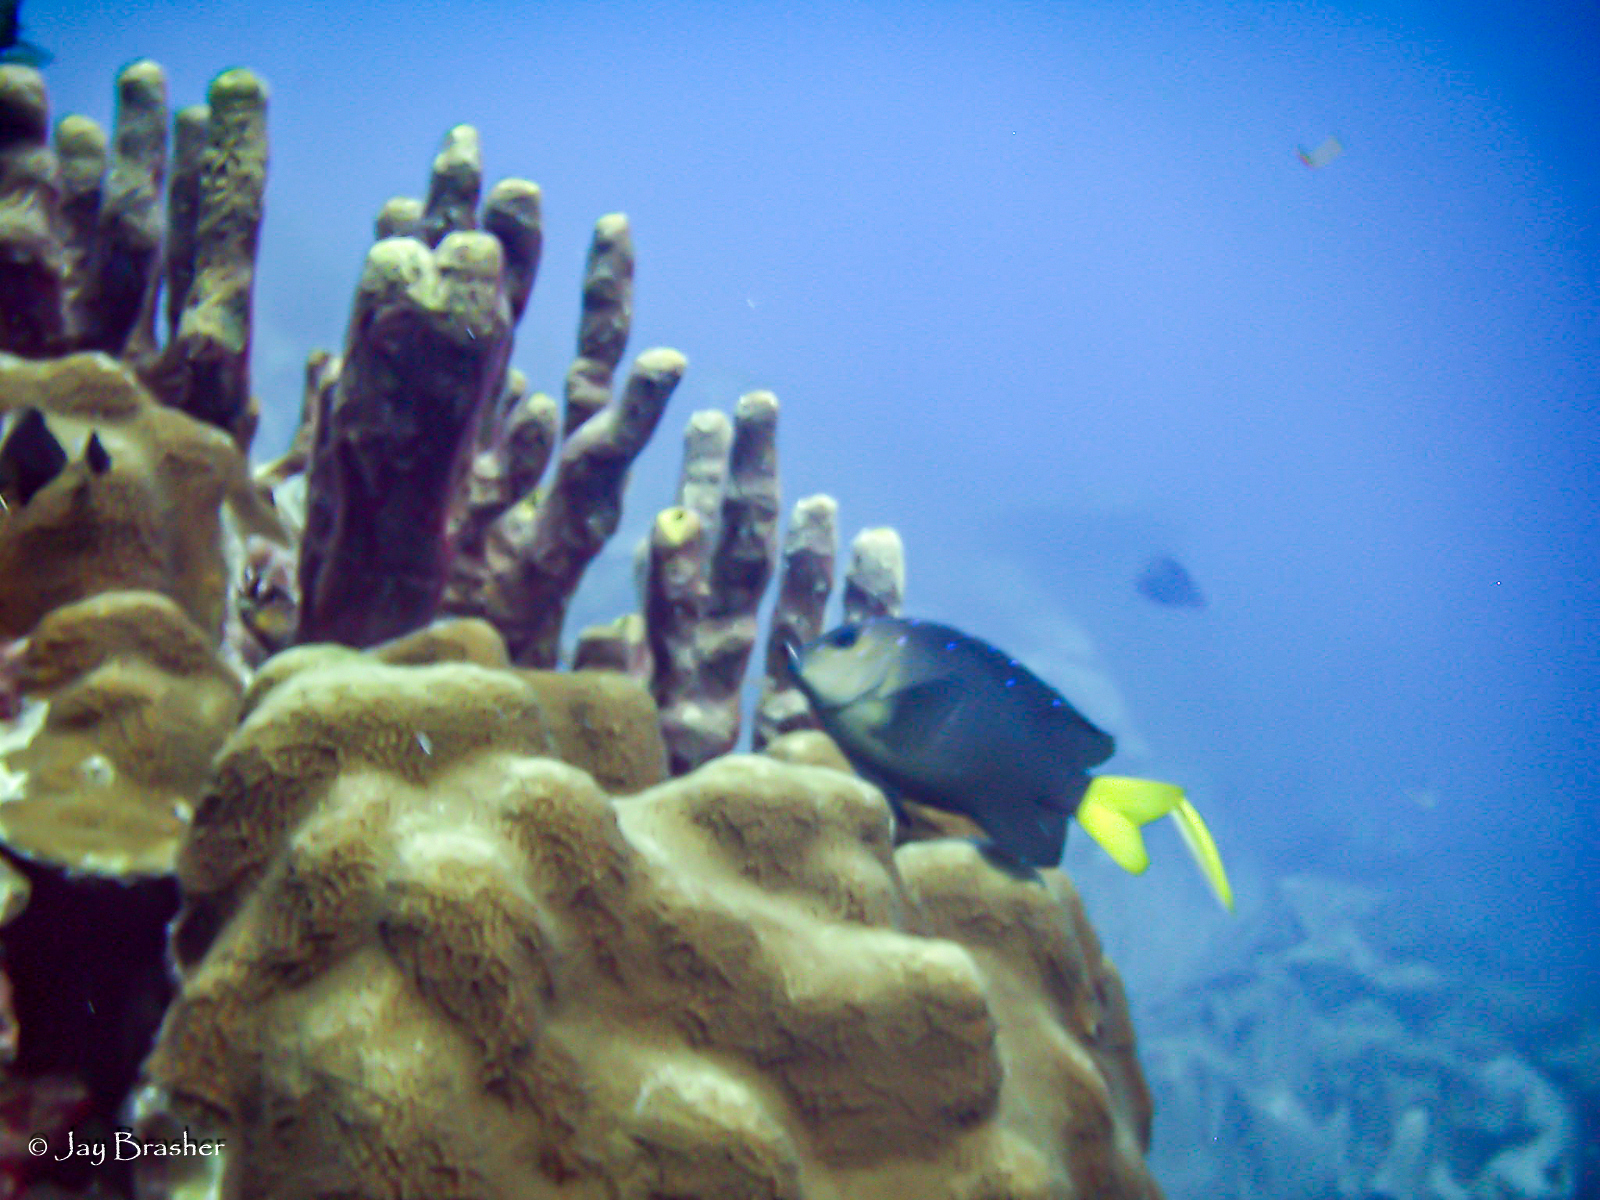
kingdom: Animalia
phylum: Chordata
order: Perciformes
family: Pomacentridae
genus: Microspathodon
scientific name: Microspathodon chrysurus
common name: Yellowtail damselfish
